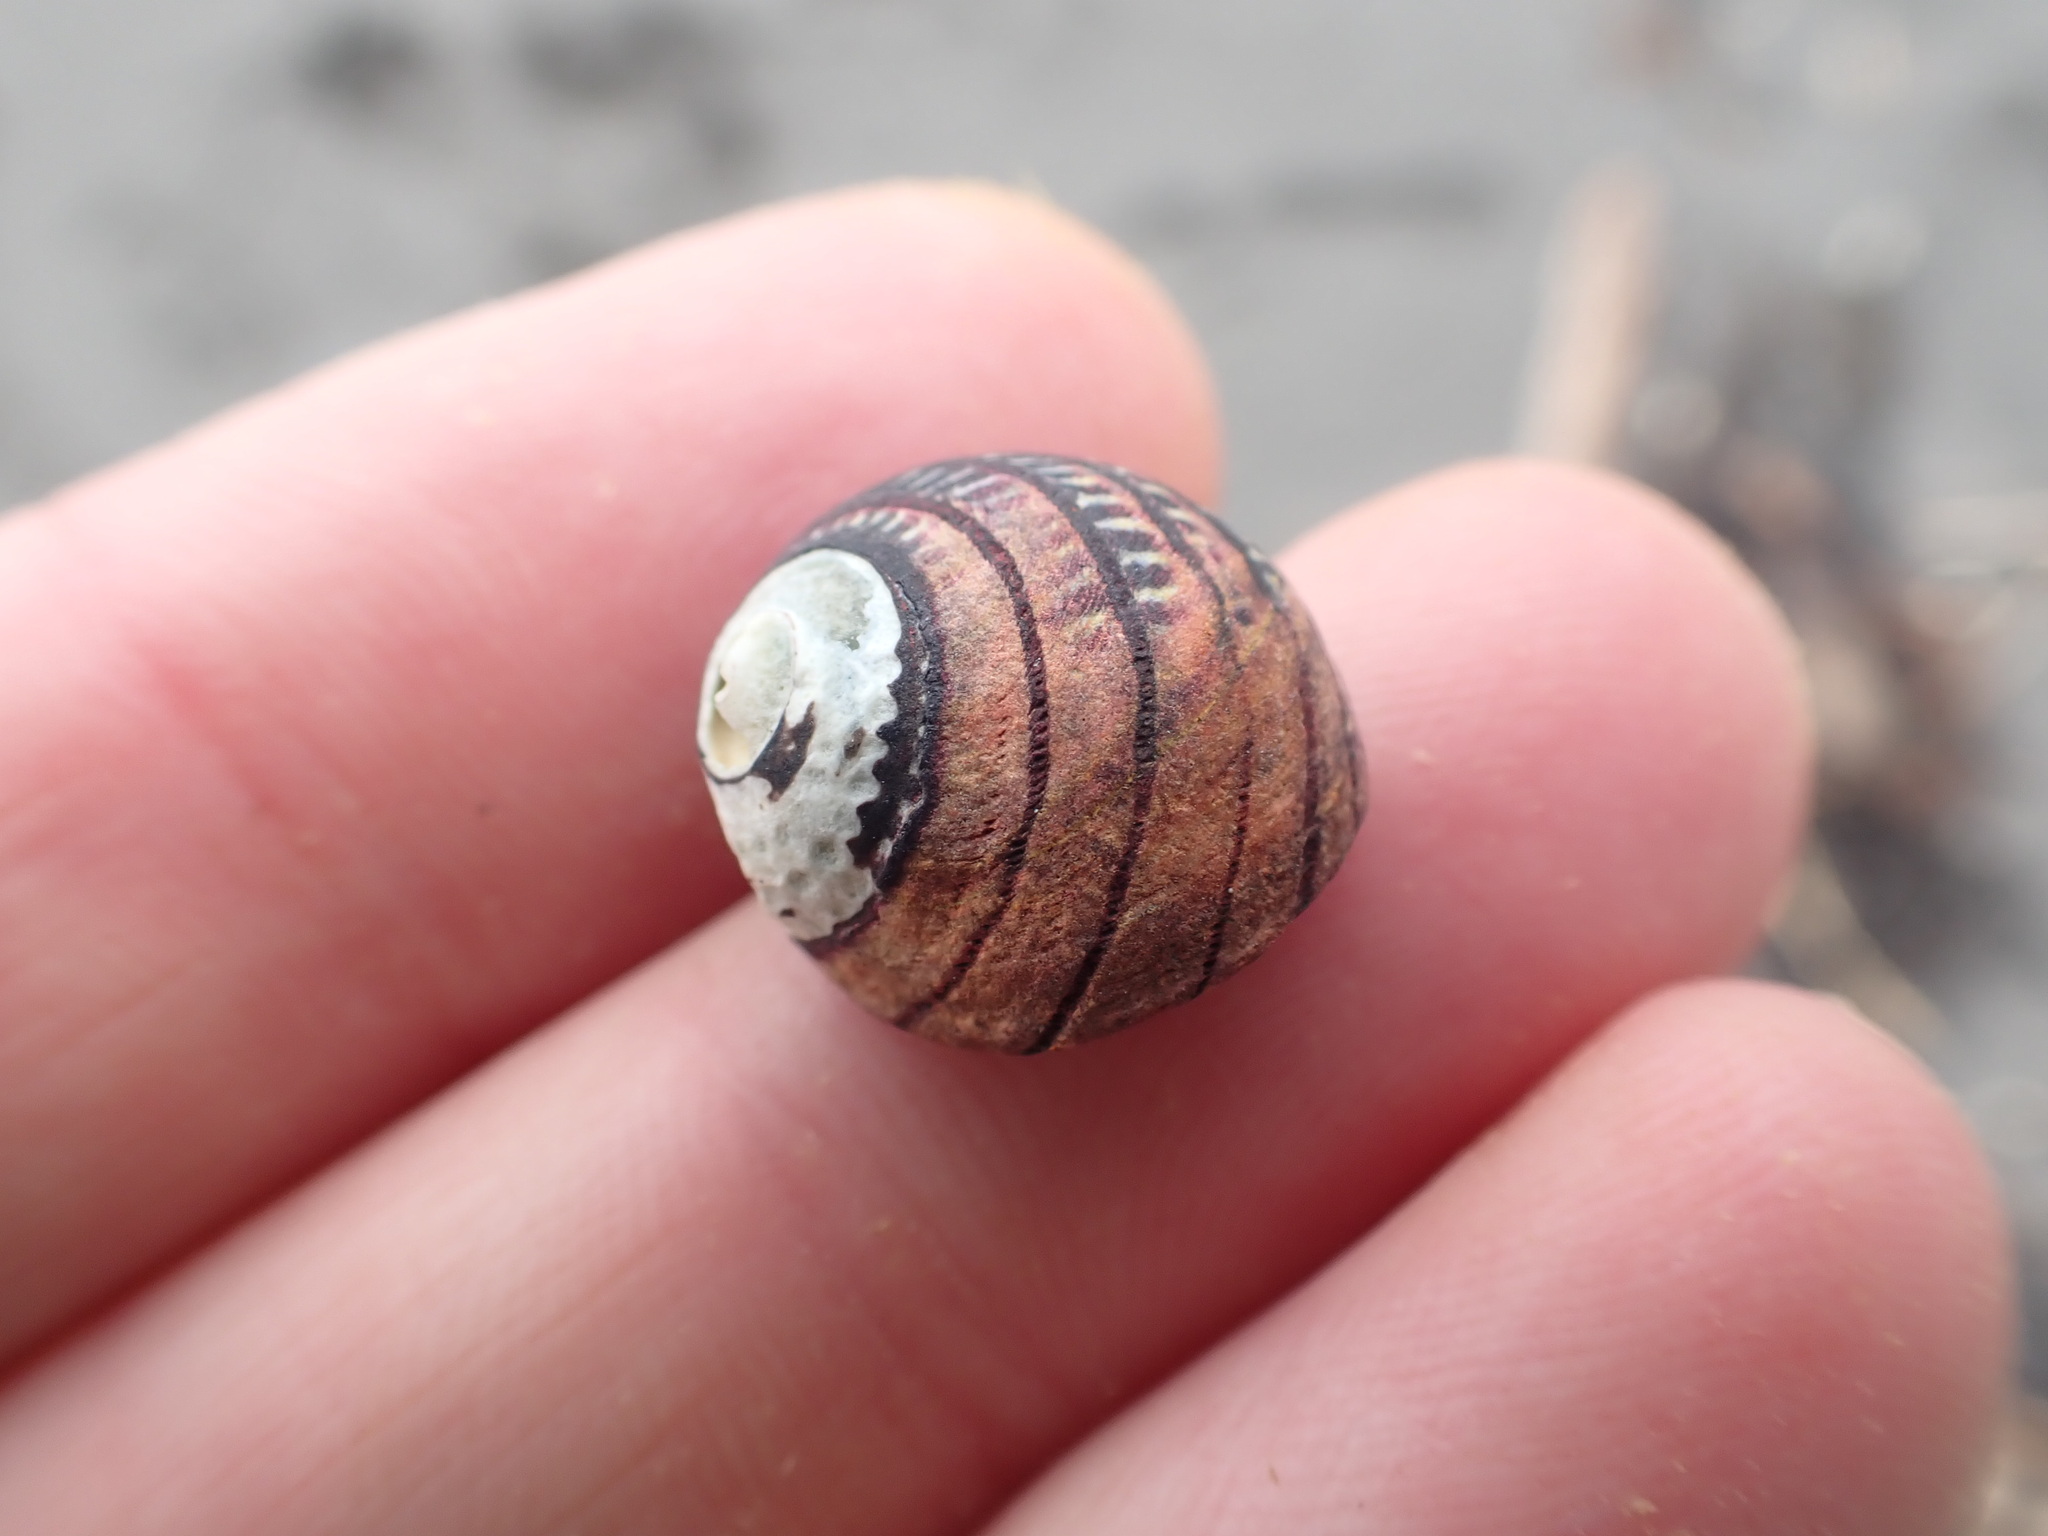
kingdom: Animalia
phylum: Mollusca
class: Gastropoda
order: Trochida
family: Trochidae
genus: Diloma
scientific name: Diloma aethiops
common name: Scorched monodont
